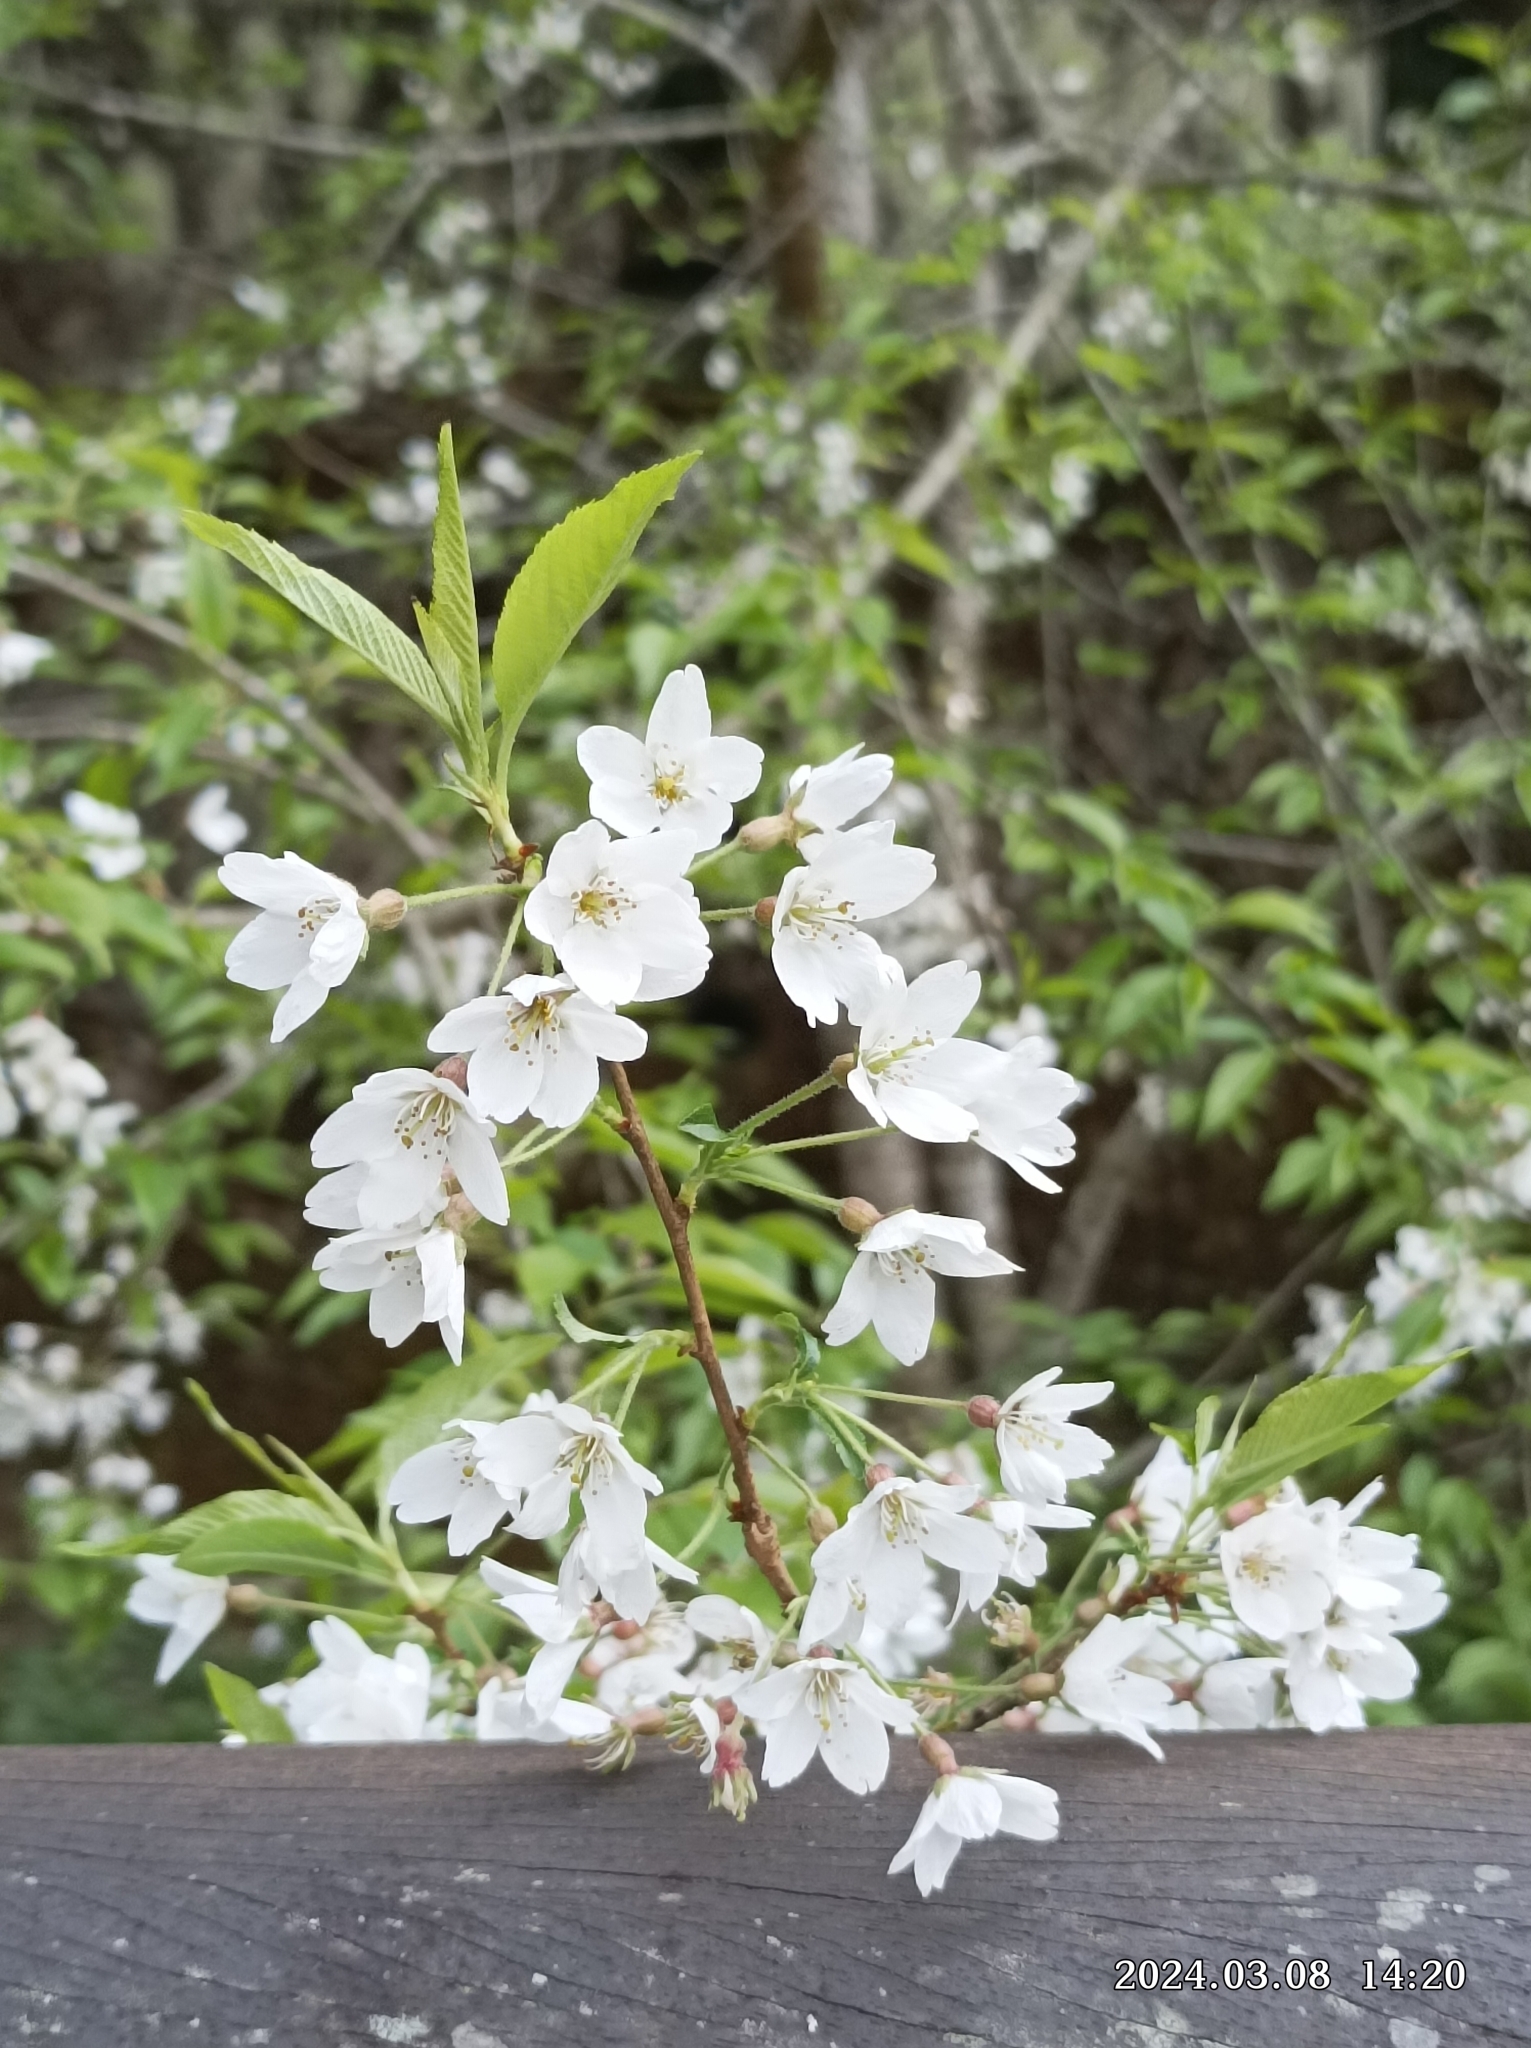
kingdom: Plantae
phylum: Tracheophyta
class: Magnoliopsida
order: Rosales
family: Rosaceae
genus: Prunus
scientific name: Prunus itosakura
